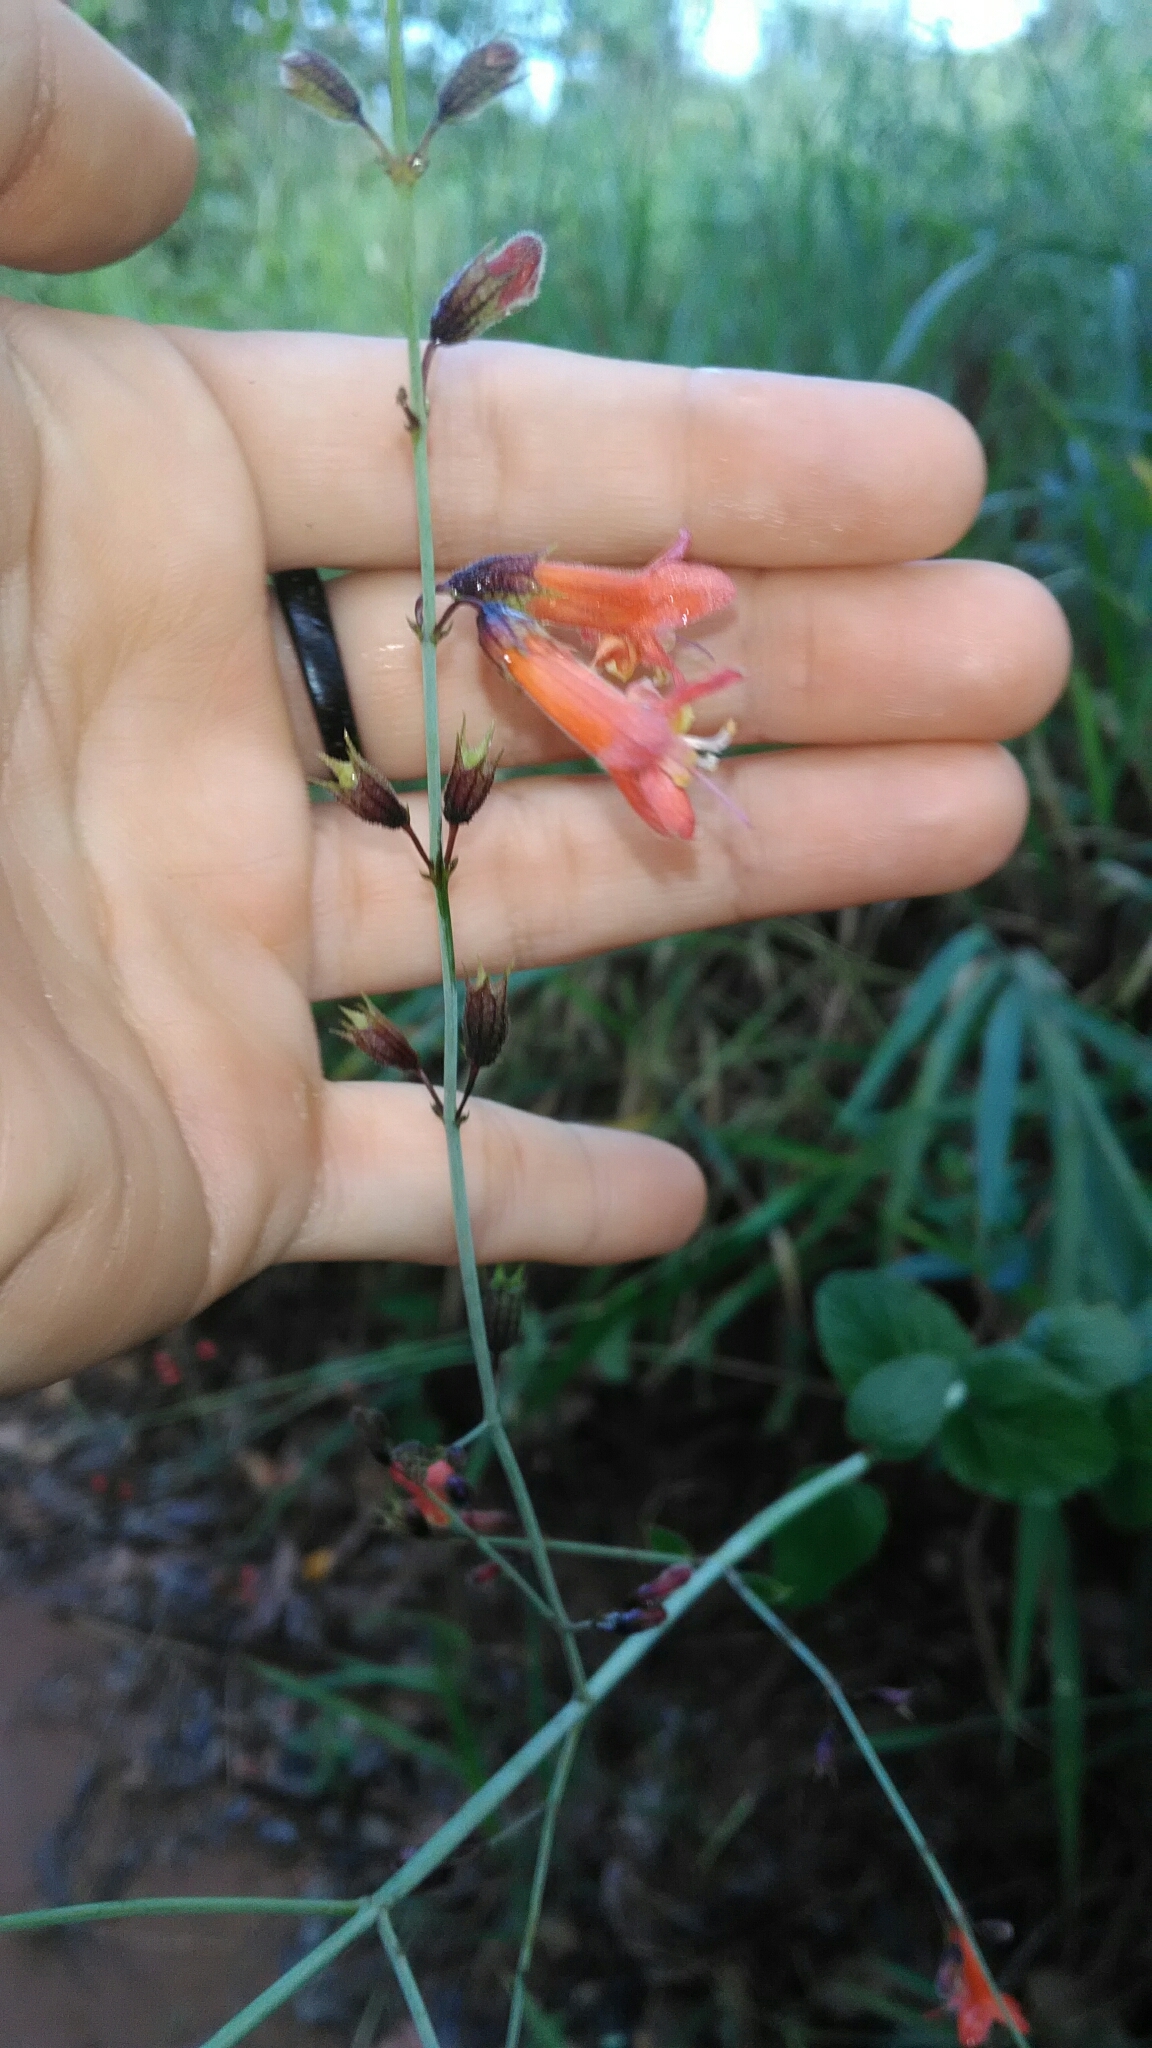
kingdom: Plantae
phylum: Tracheophyta
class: Magnoliopsida
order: Lamiales
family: Lamiaceae
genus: Hypenia
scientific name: Hypenia macrantha
